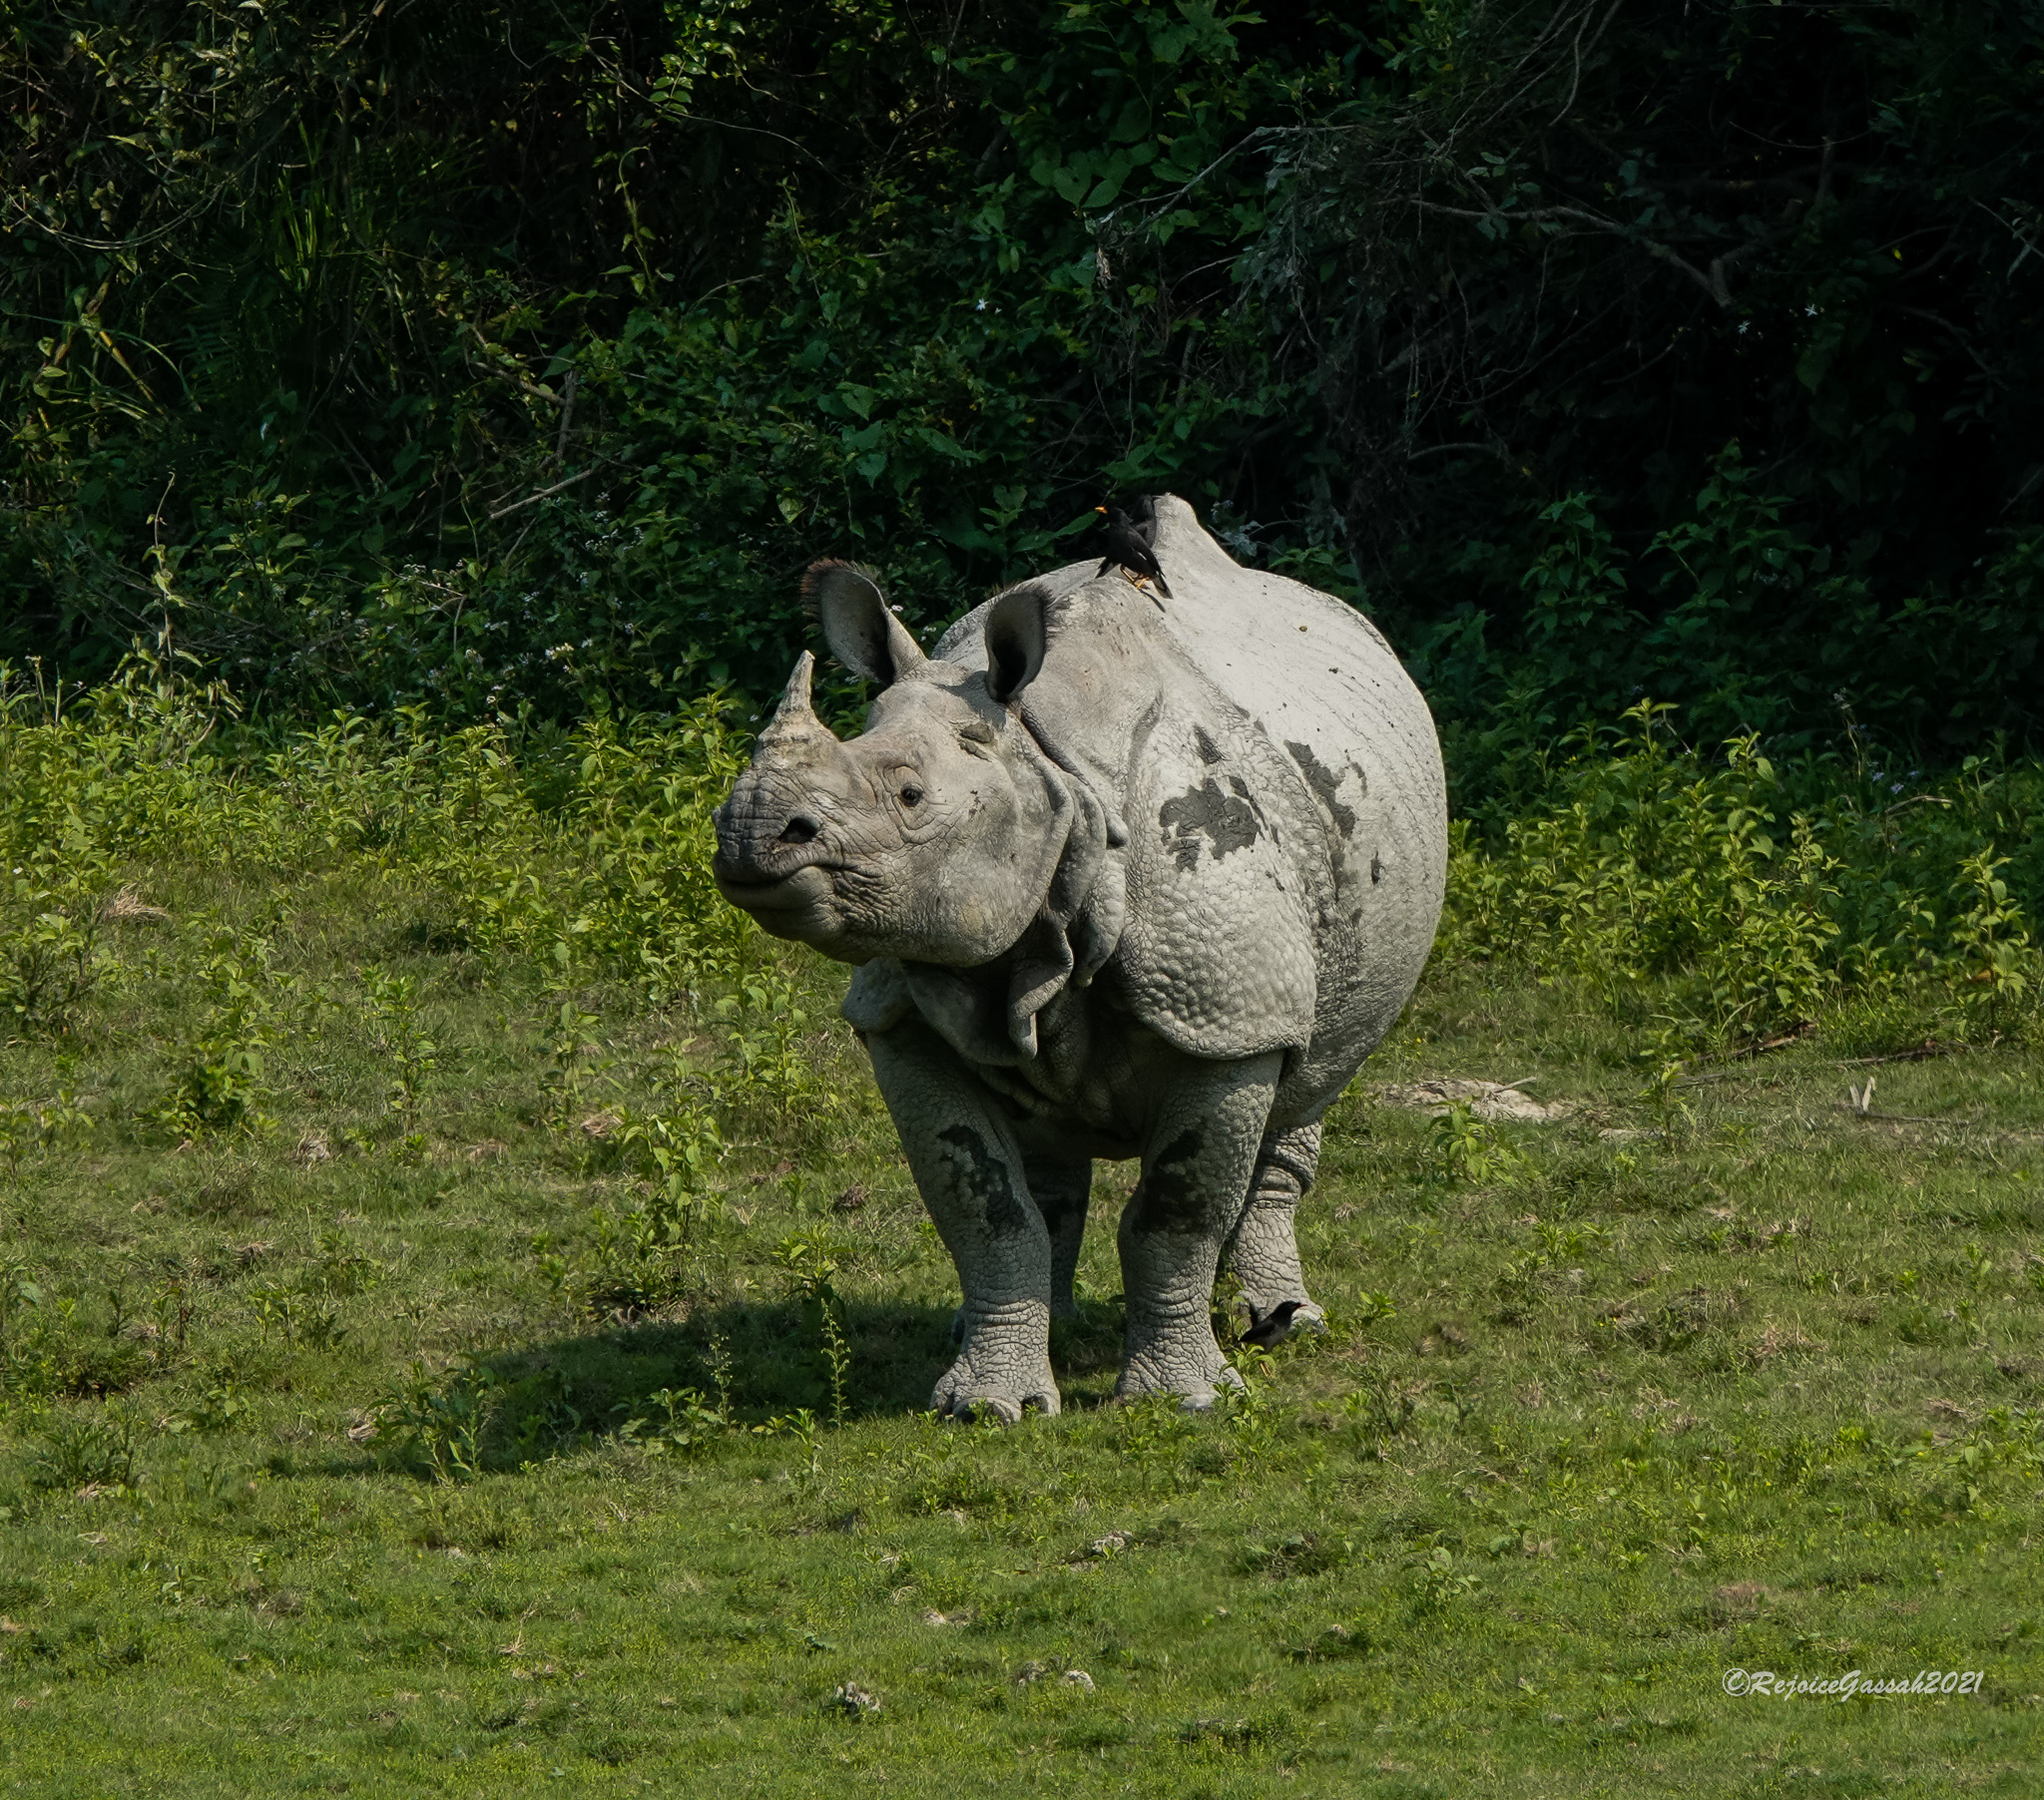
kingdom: Animalia
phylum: Chordata
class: Mammalia
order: Perissodactyla
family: Rhinocerotidae
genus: Rhinoceros
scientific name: Rhinoceros unicornis
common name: Indian rhinoceros
